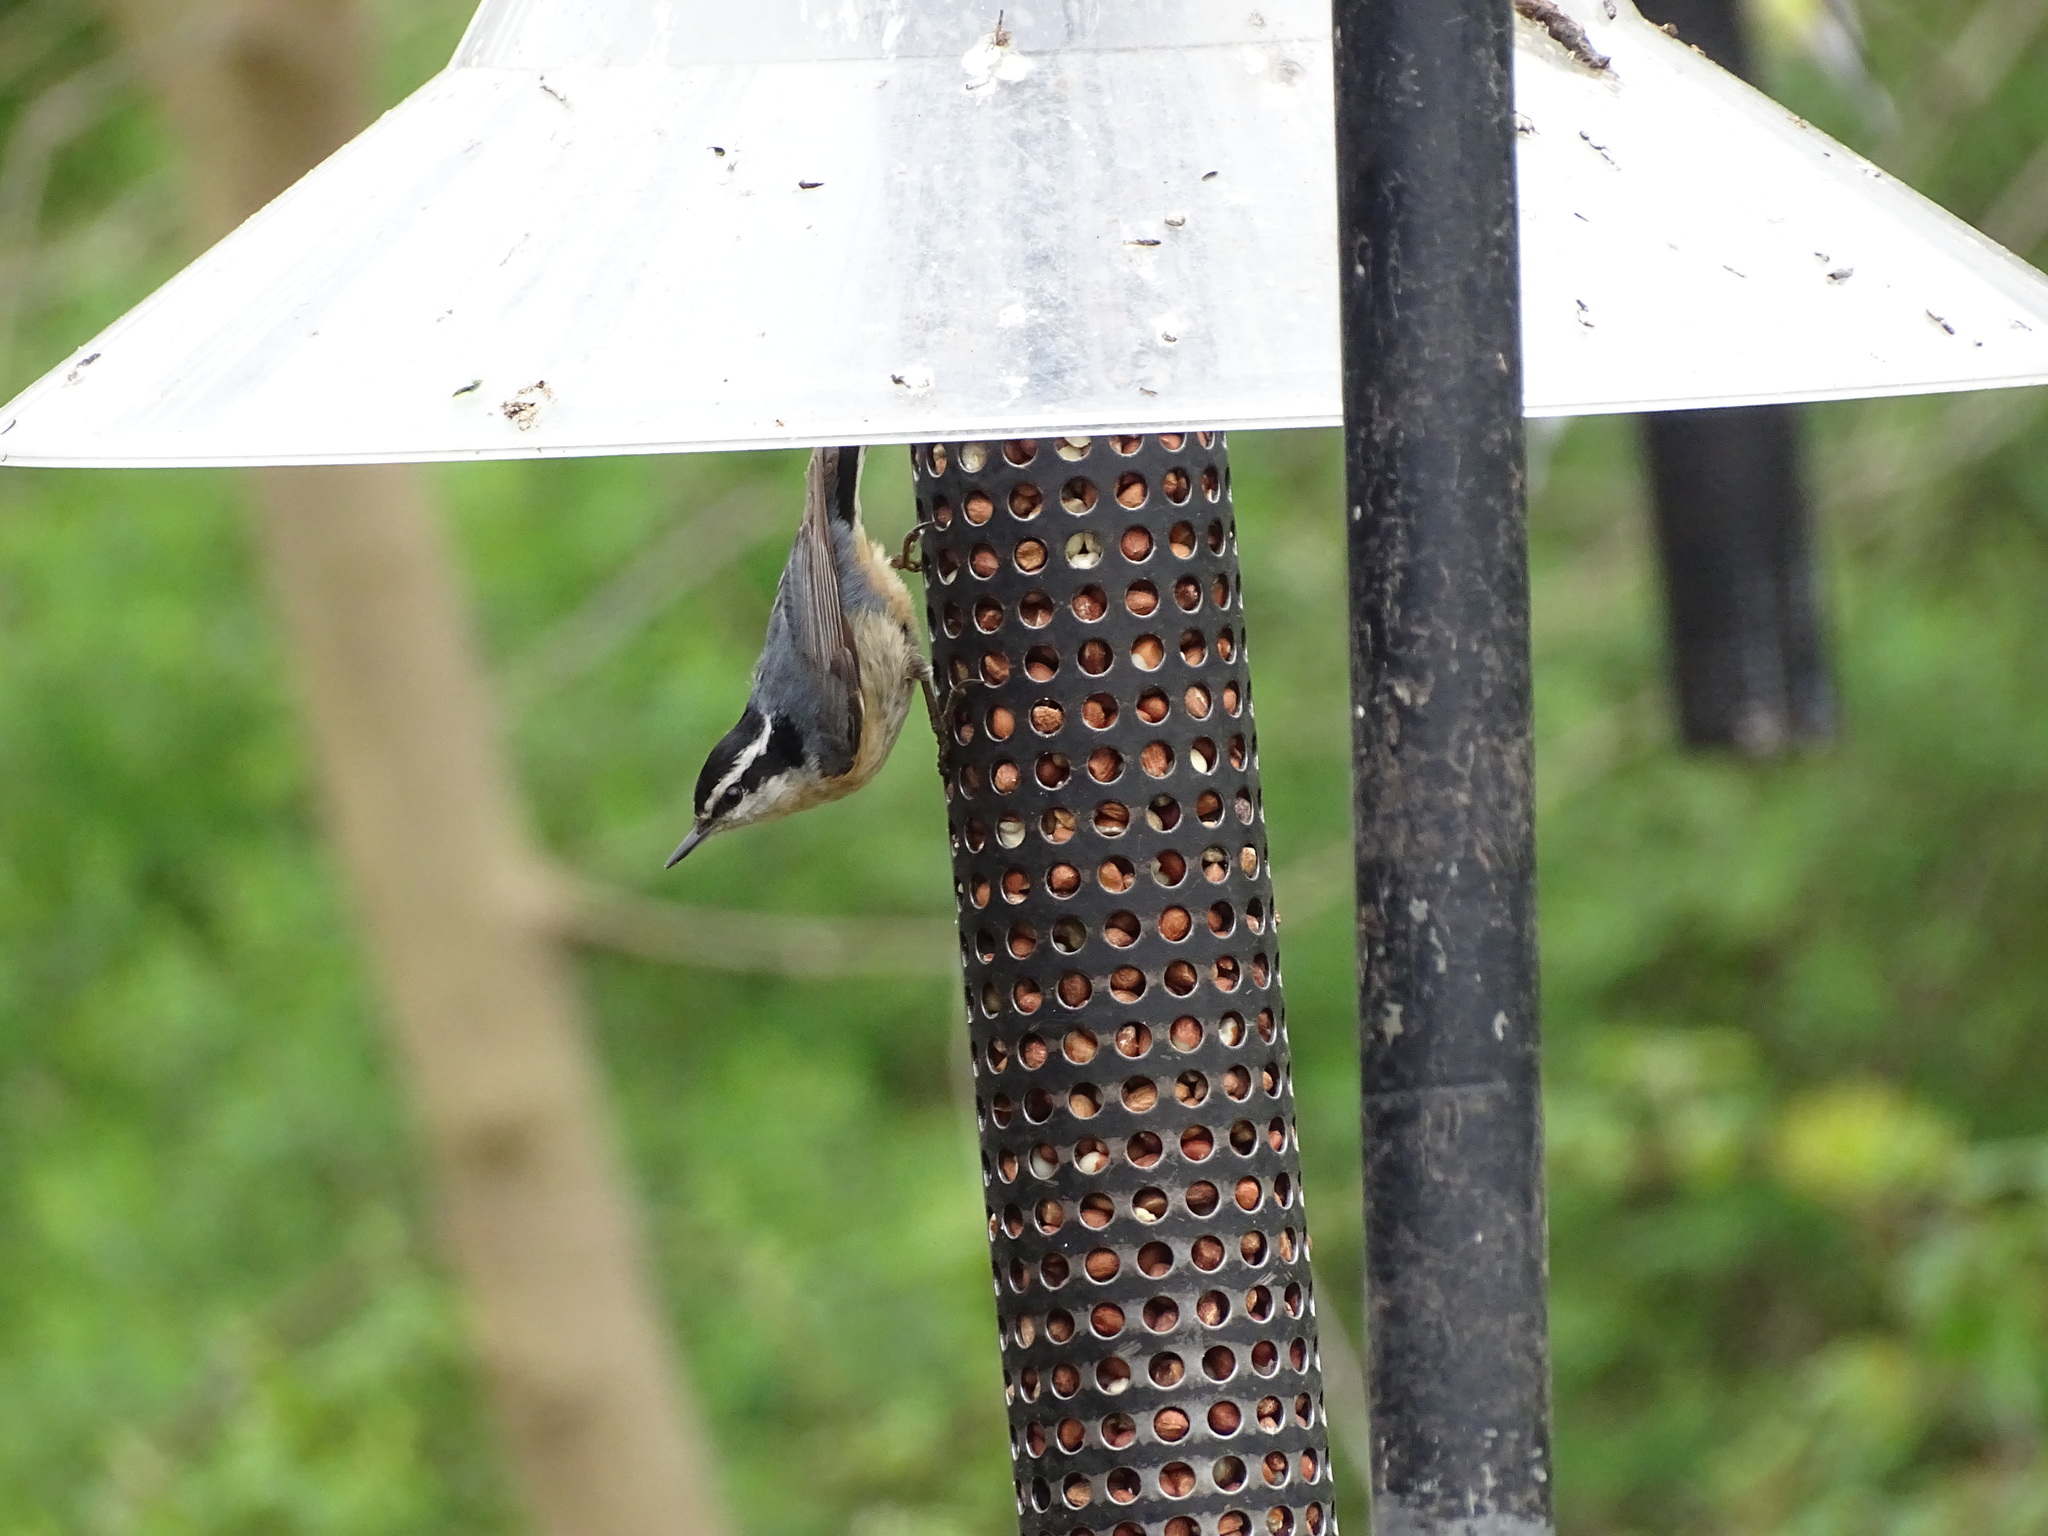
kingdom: Animalia
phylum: Chordata
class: Aves
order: Passeriformes
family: Sittidae
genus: Sitta
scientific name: Sitta canadensis
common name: Red-breasted nuthatch
